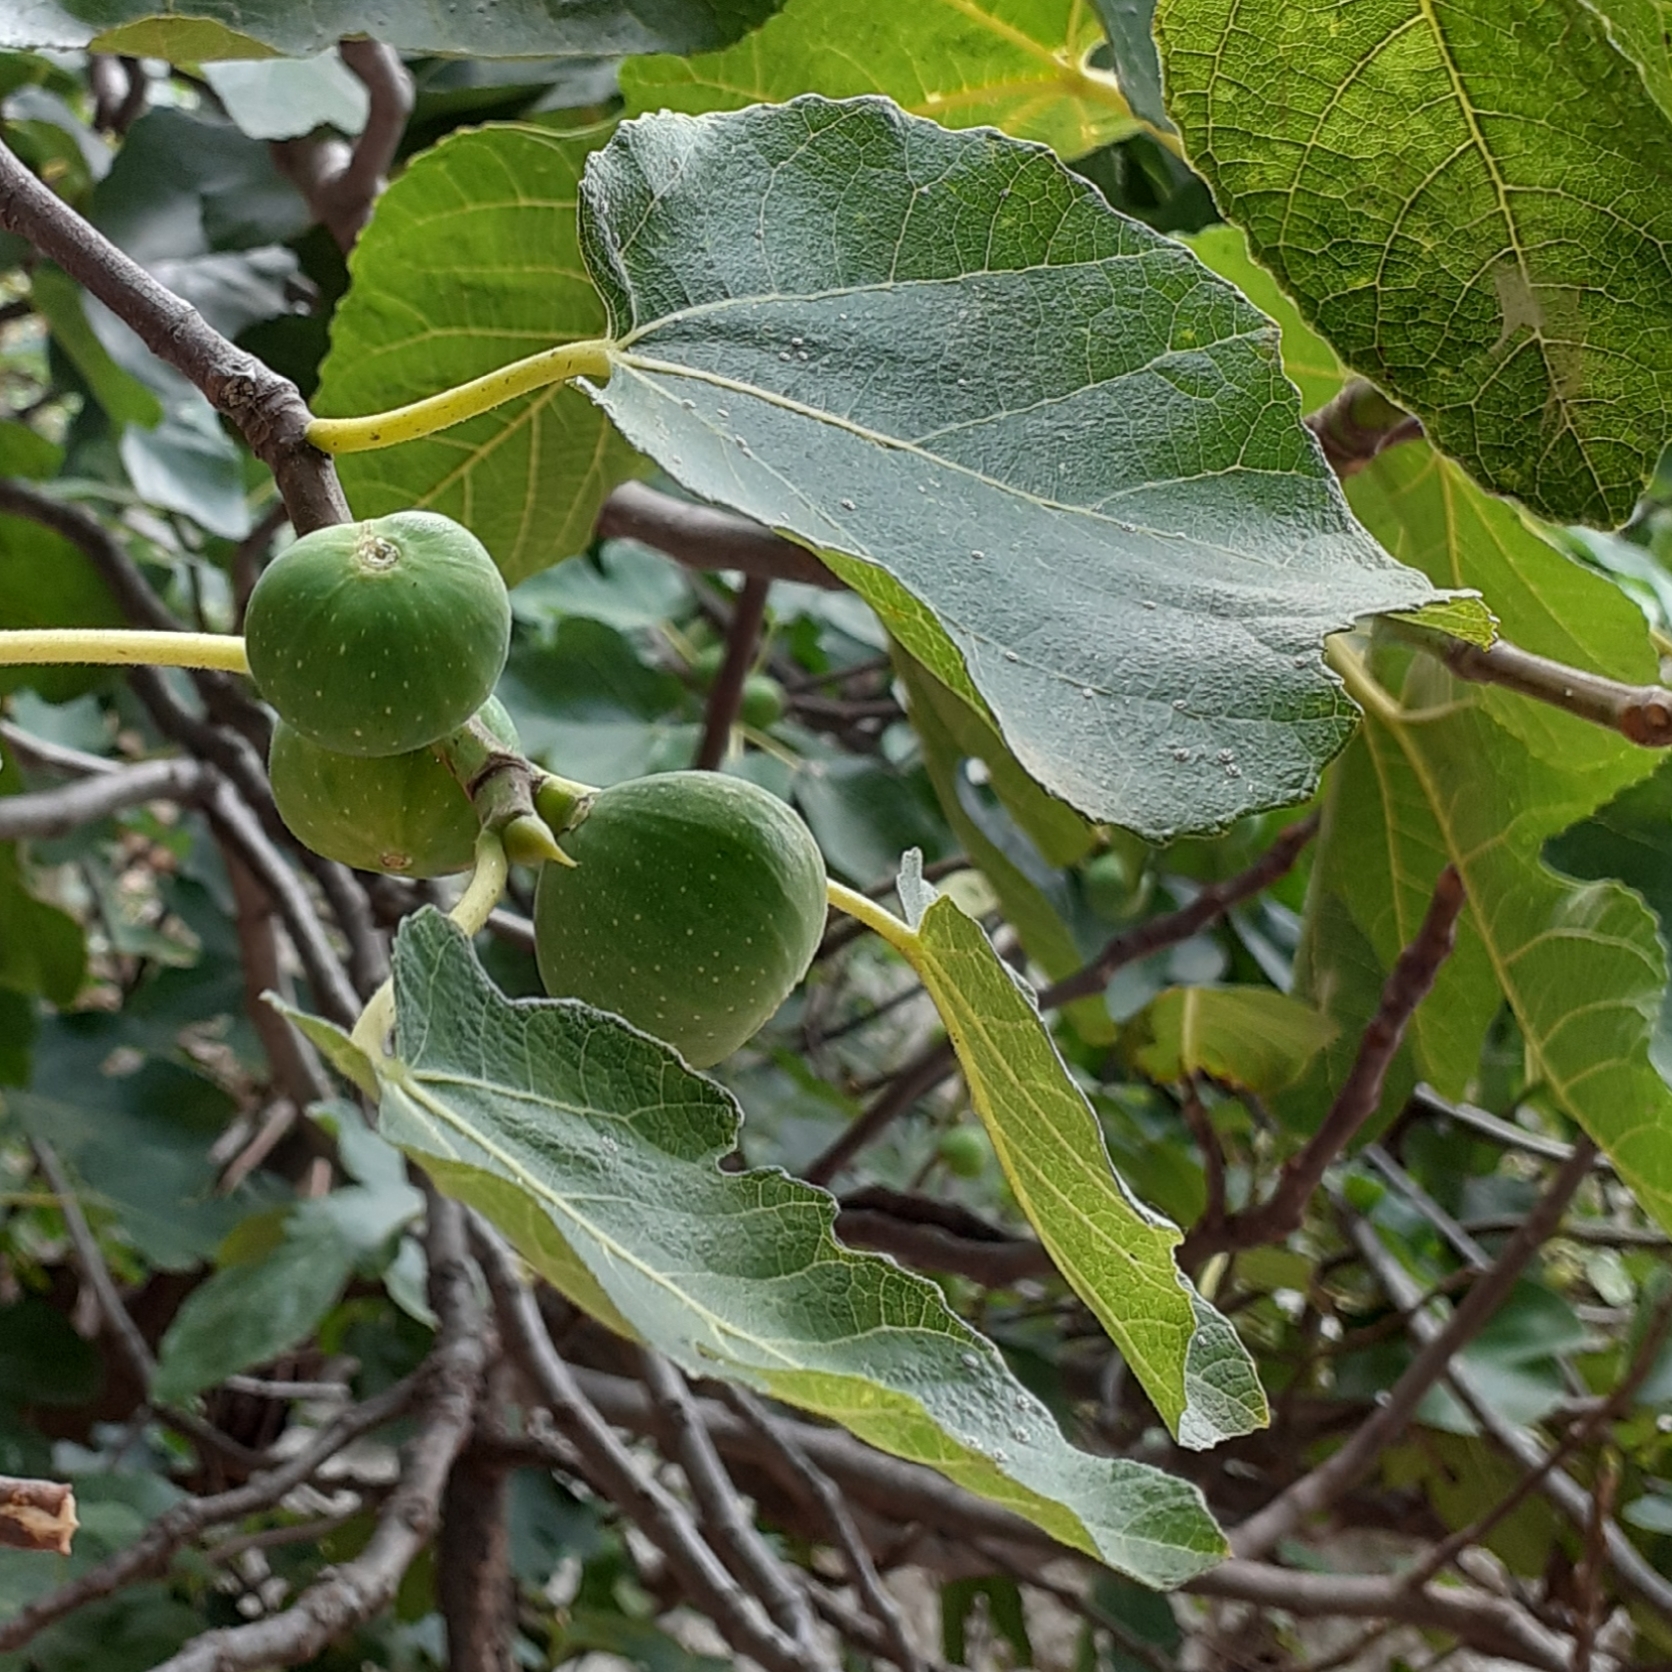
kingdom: Plantae
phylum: Tracheophyta
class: Magnoliopsida
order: Rosales
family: Moraceae
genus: Ficus
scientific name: Ficus carica
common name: Fig
